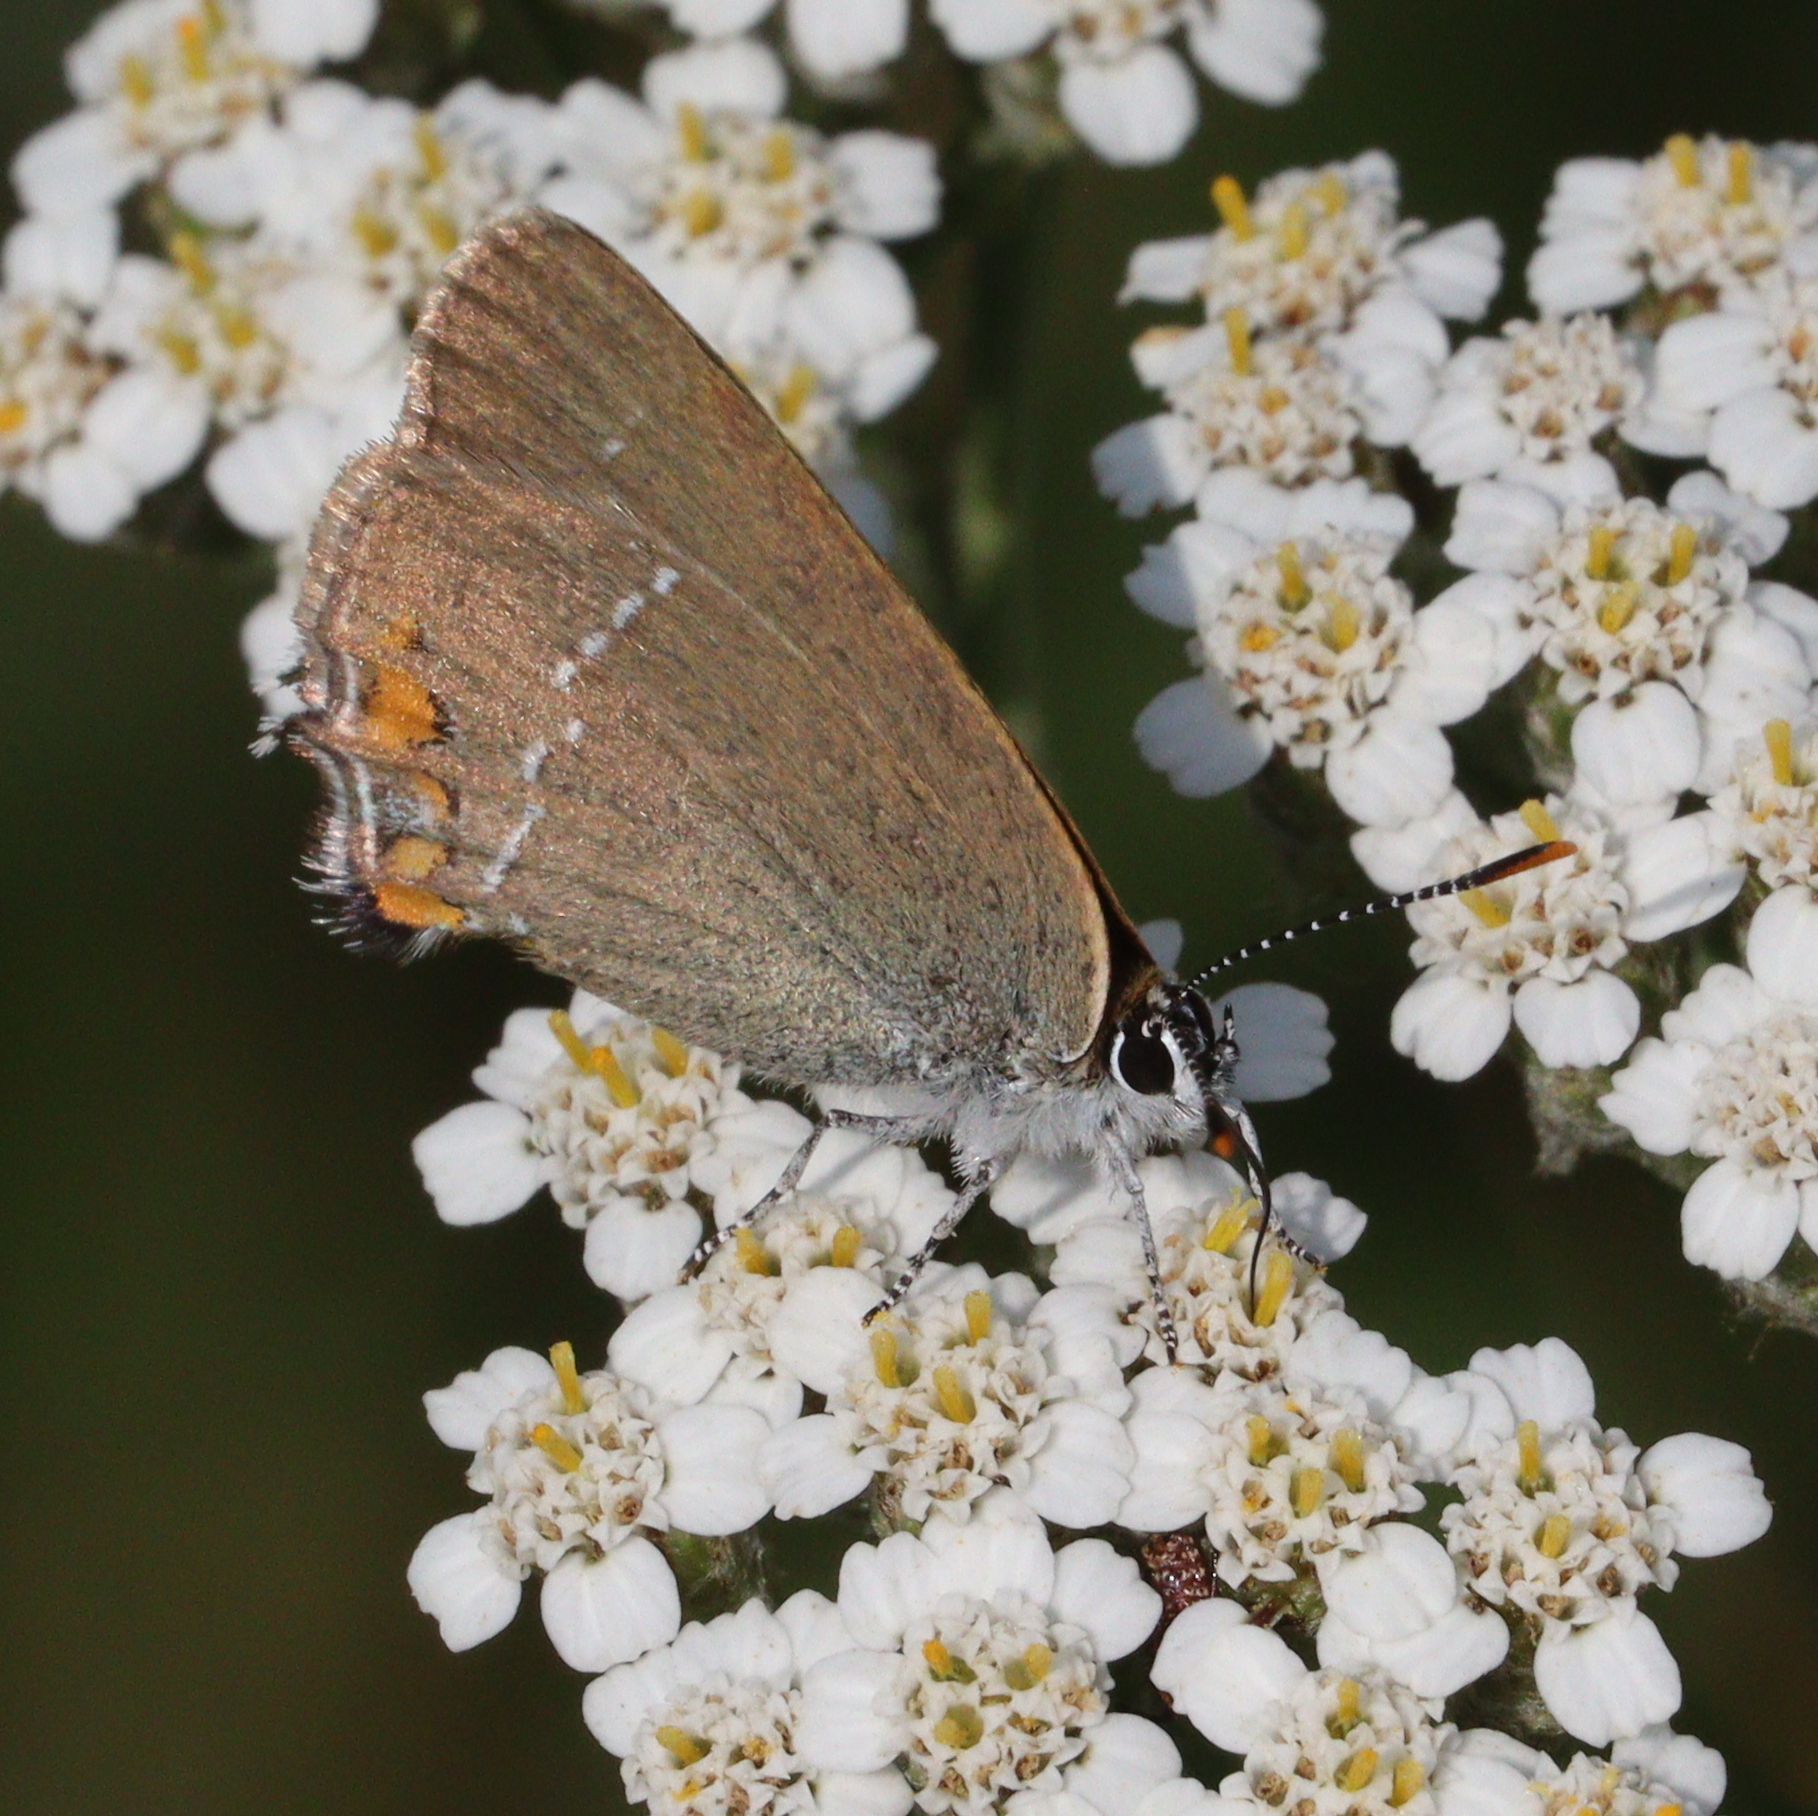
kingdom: Animalia
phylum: Arthropoda
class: Insecta
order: Lepidoptera
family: Lycaenidae
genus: Strymon
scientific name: Strymon acaciae
